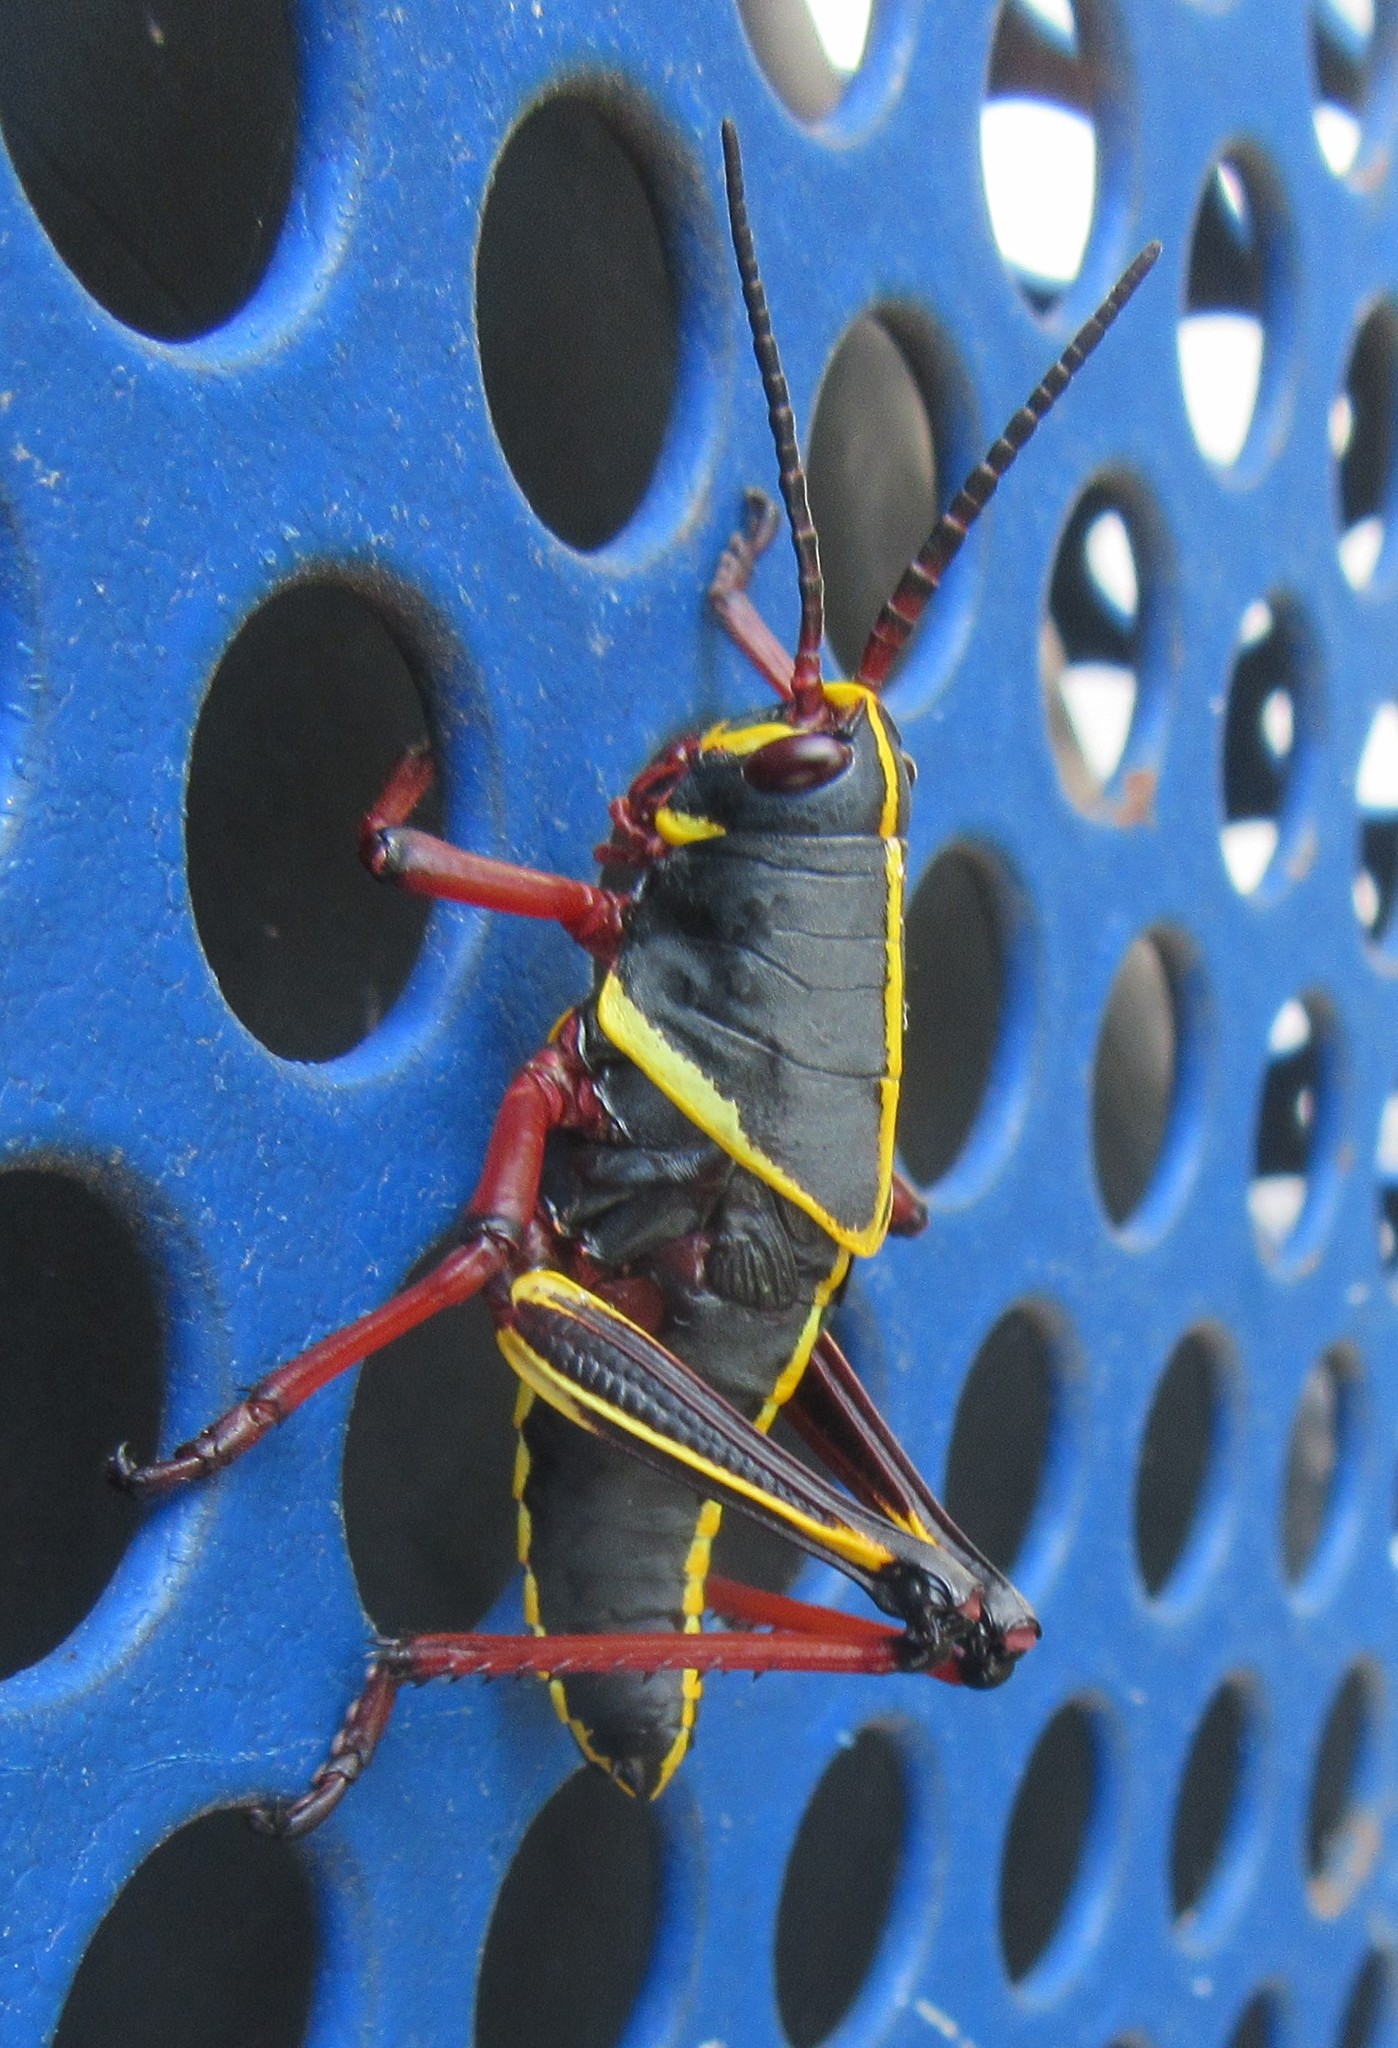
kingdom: Animalia
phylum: Arthropoda
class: Insecta
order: Orthoptera
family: Romaleidae
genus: Romalea
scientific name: Romalea microptera
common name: Eastern lubber grasshopper
